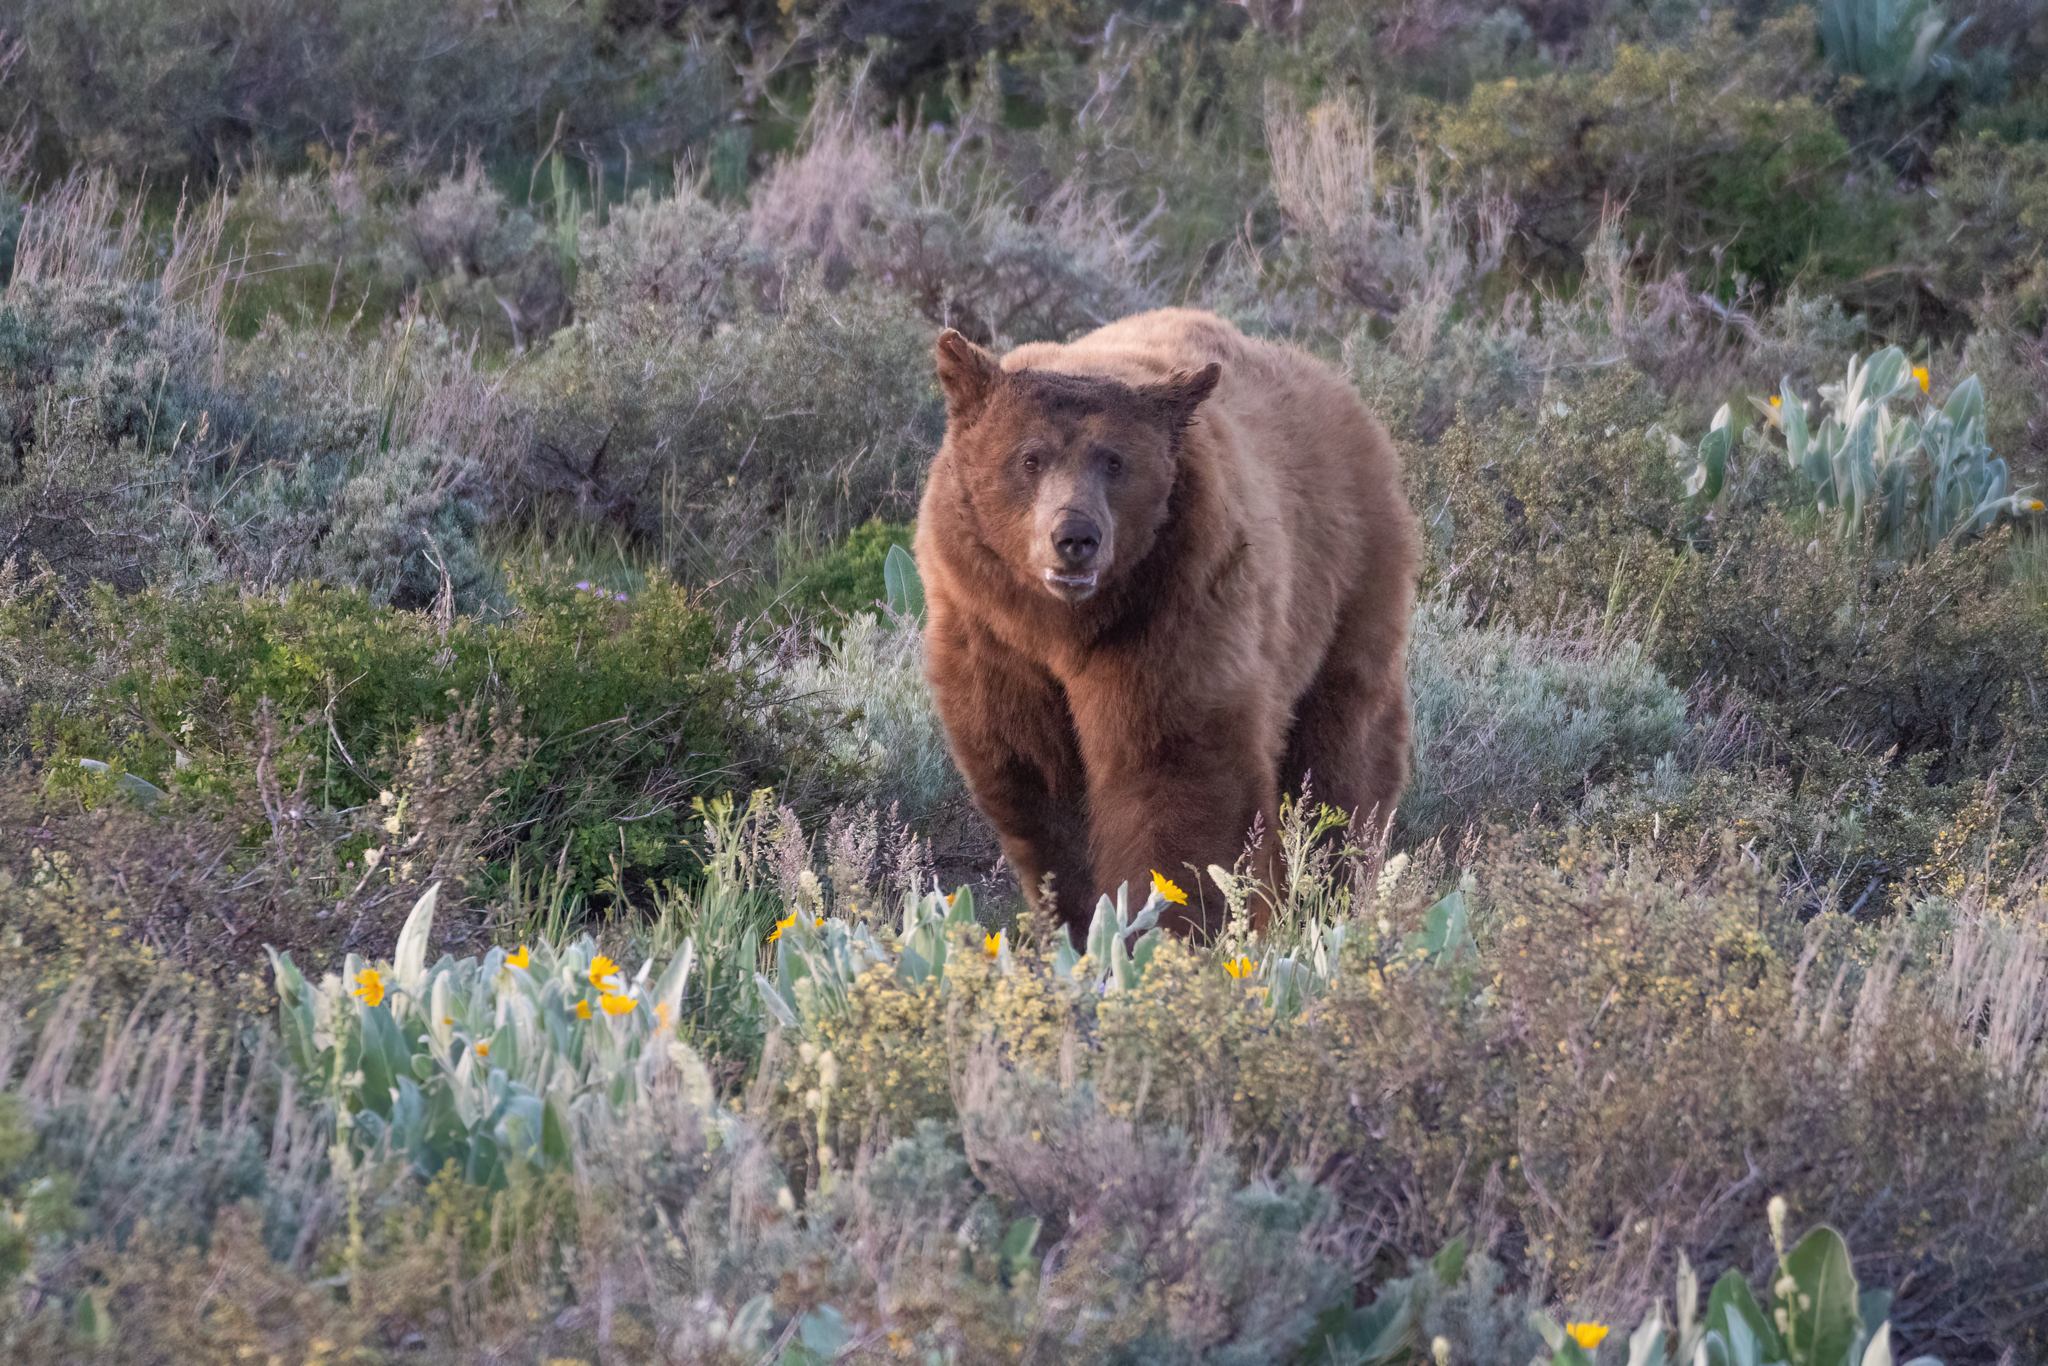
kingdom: Animalia
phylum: Chordata
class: Mammalia
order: Carnivora
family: Ursidae
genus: Ursus
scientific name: Ursus americanus
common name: American black bear
